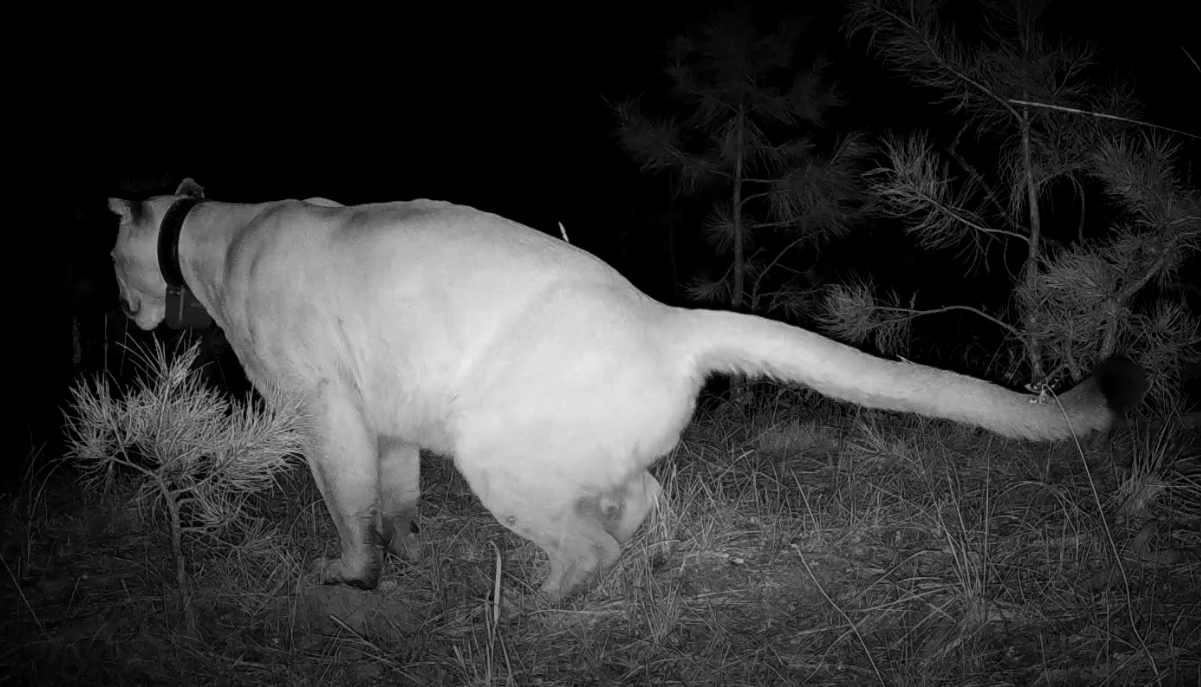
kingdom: Animalia
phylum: Chordata
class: Mammalia
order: Carnivora
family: Felidae
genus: Puma
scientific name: Puma concolor
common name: Puma
